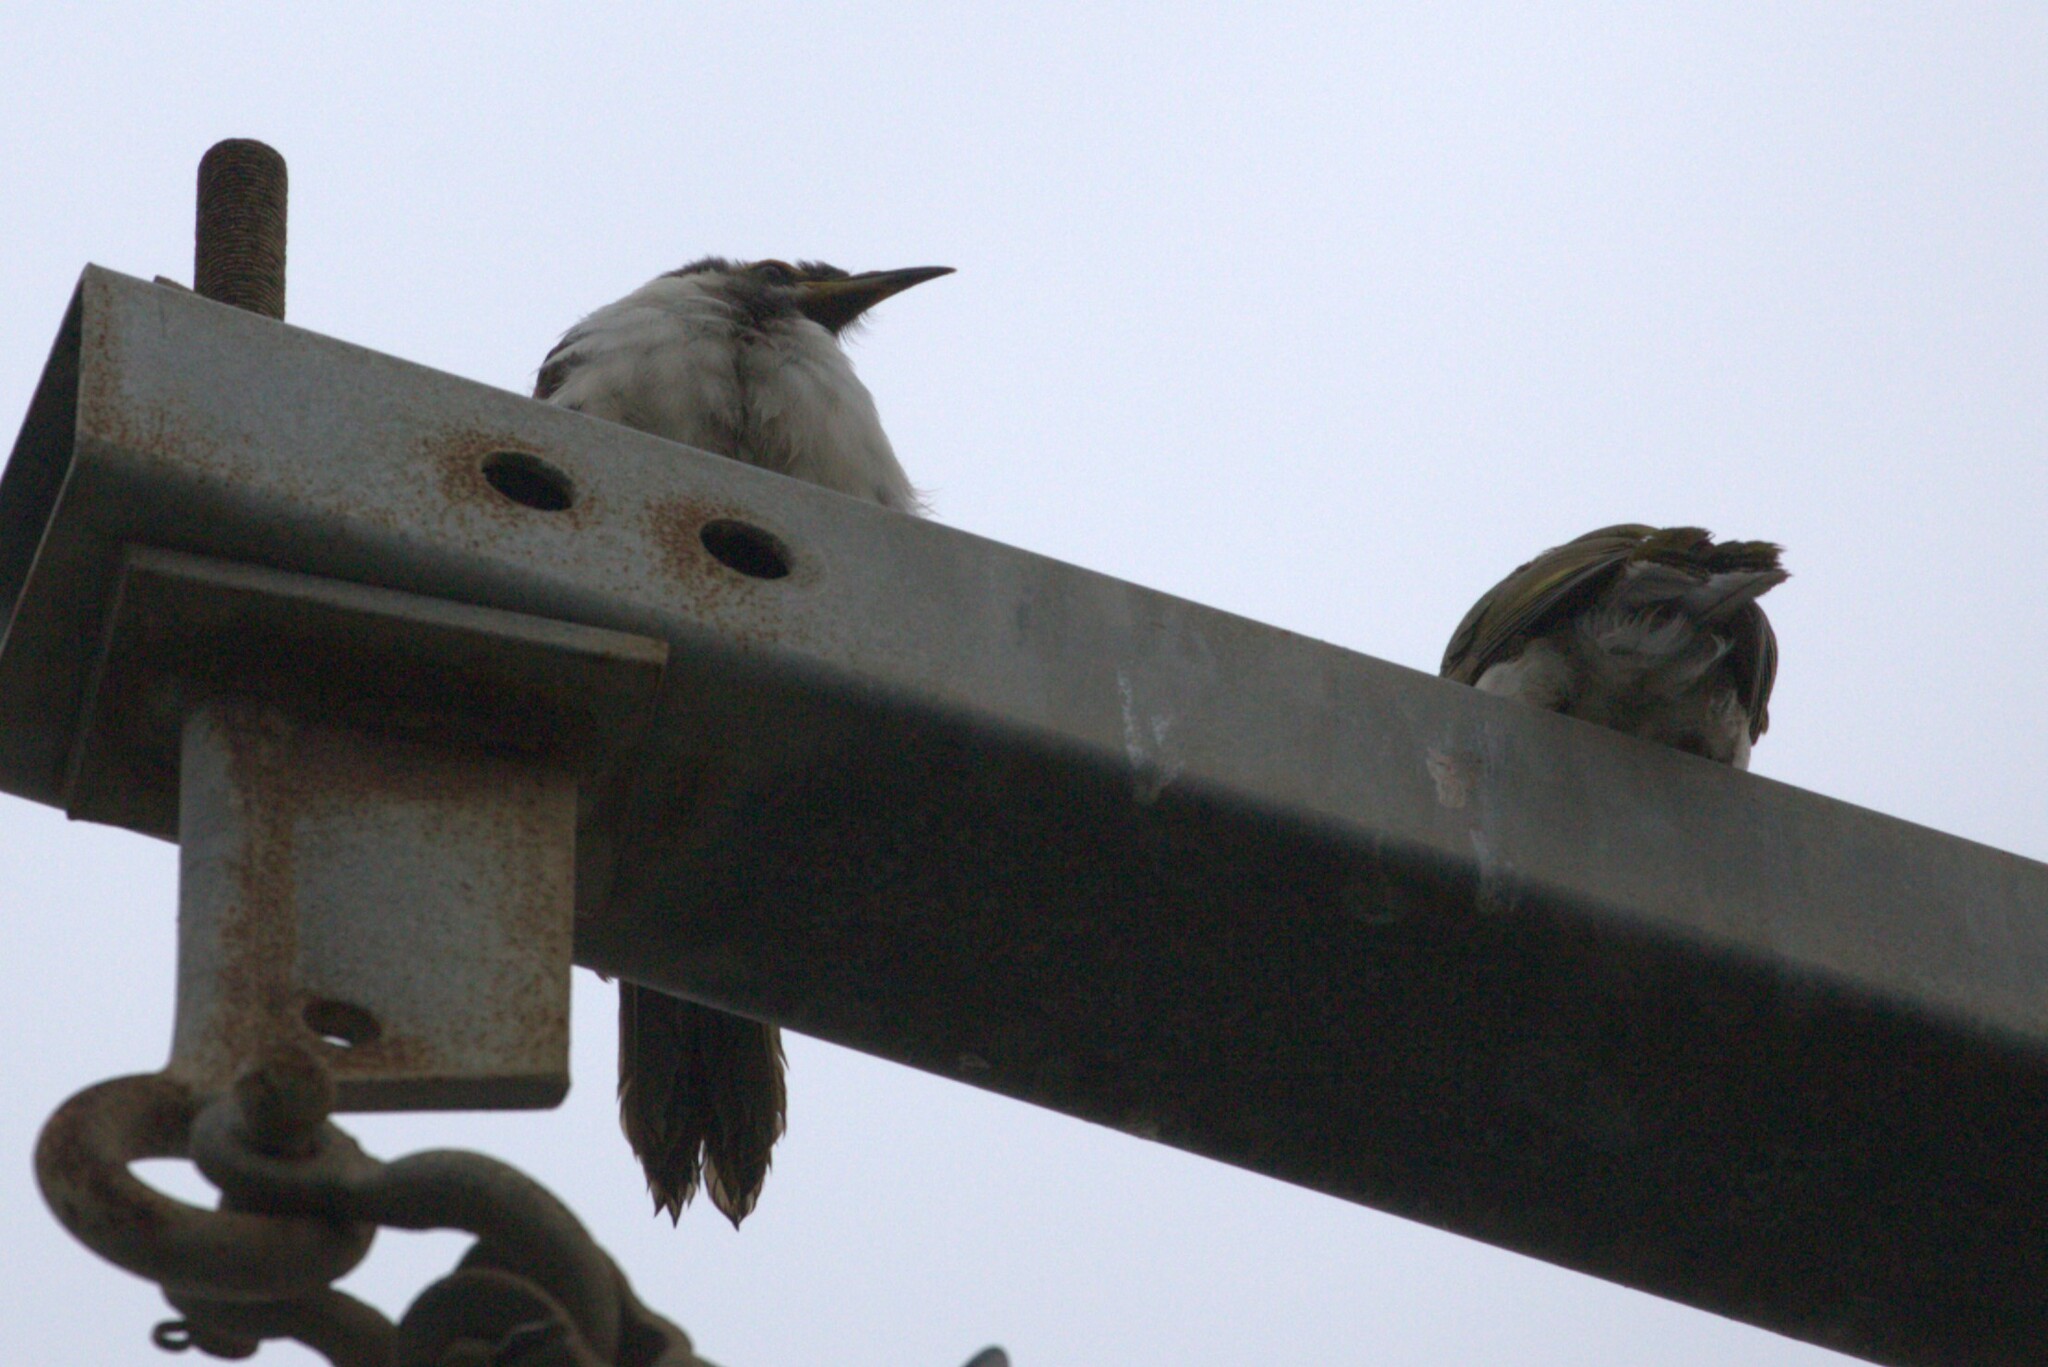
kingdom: Animalia
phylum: Chordata
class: Aves
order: Passeriformes
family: Meliphagidae
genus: Entomyzon
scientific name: Entomyzon cyanotis
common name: Blue-faced honeyeater
